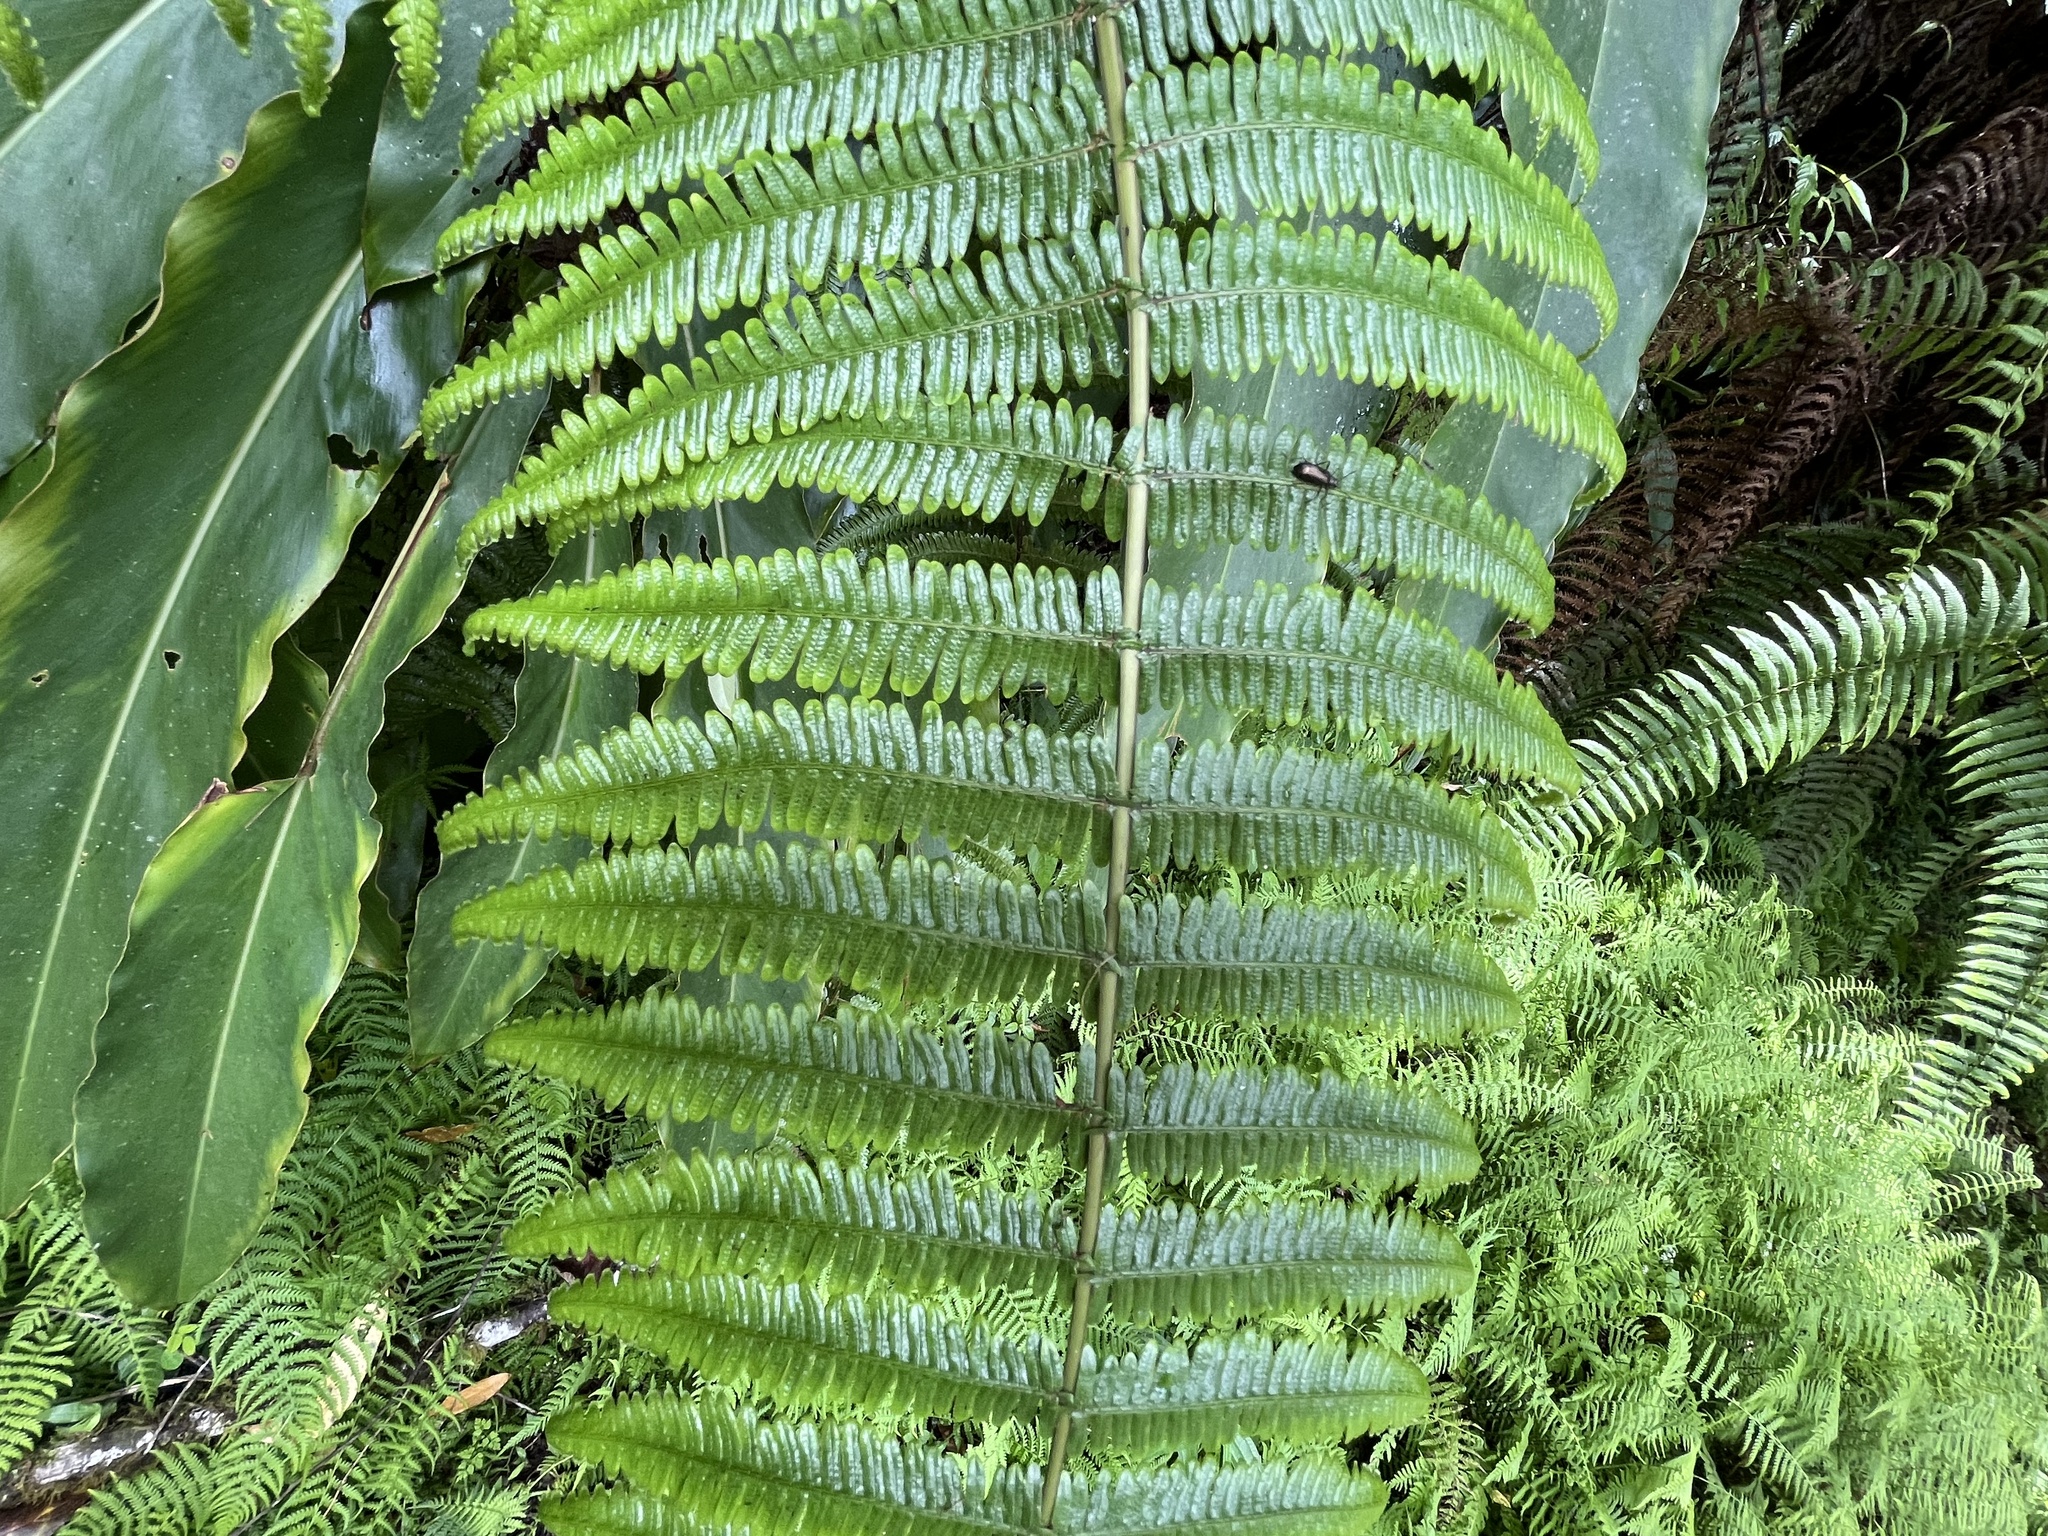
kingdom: Plantae
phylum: Tracheophyta
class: Polypodiopsida
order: Gleicheniales
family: Gleicheniaceae
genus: Diplopterygium
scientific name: Diplopterygium glaucum
